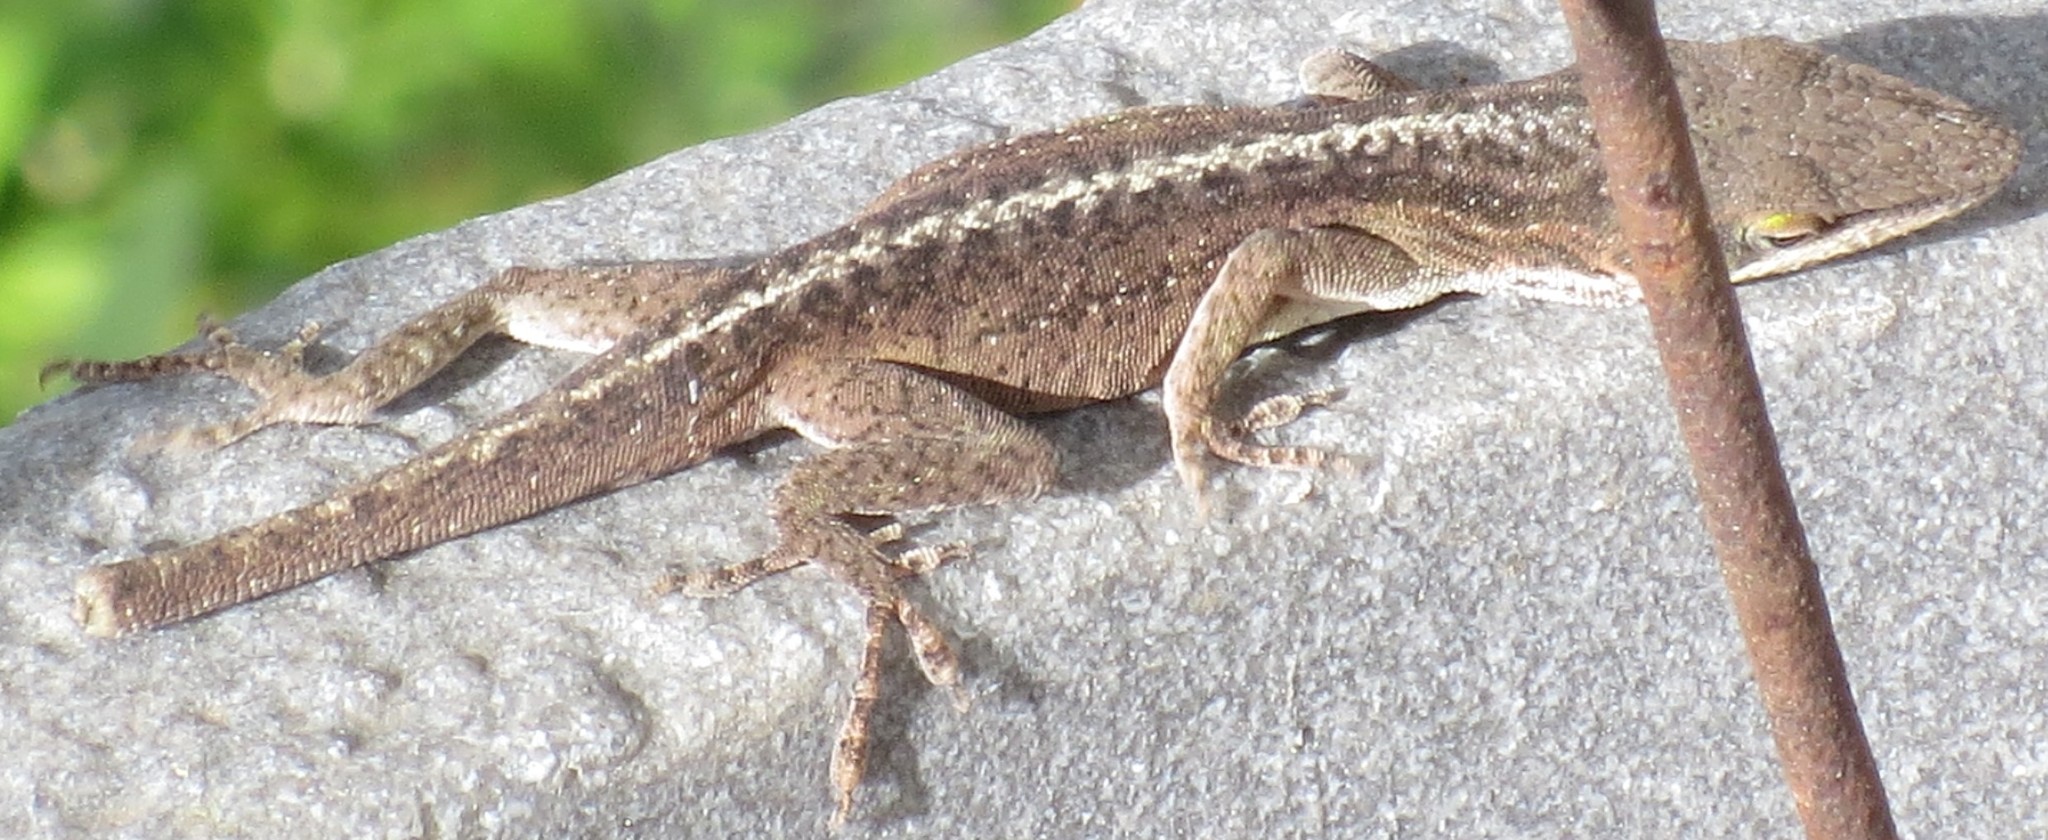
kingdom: Animalia
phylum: Chordata
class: Squamata
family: Dactyloidae
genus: Anolis
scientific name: Anolis carolinensis
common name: Green anole
